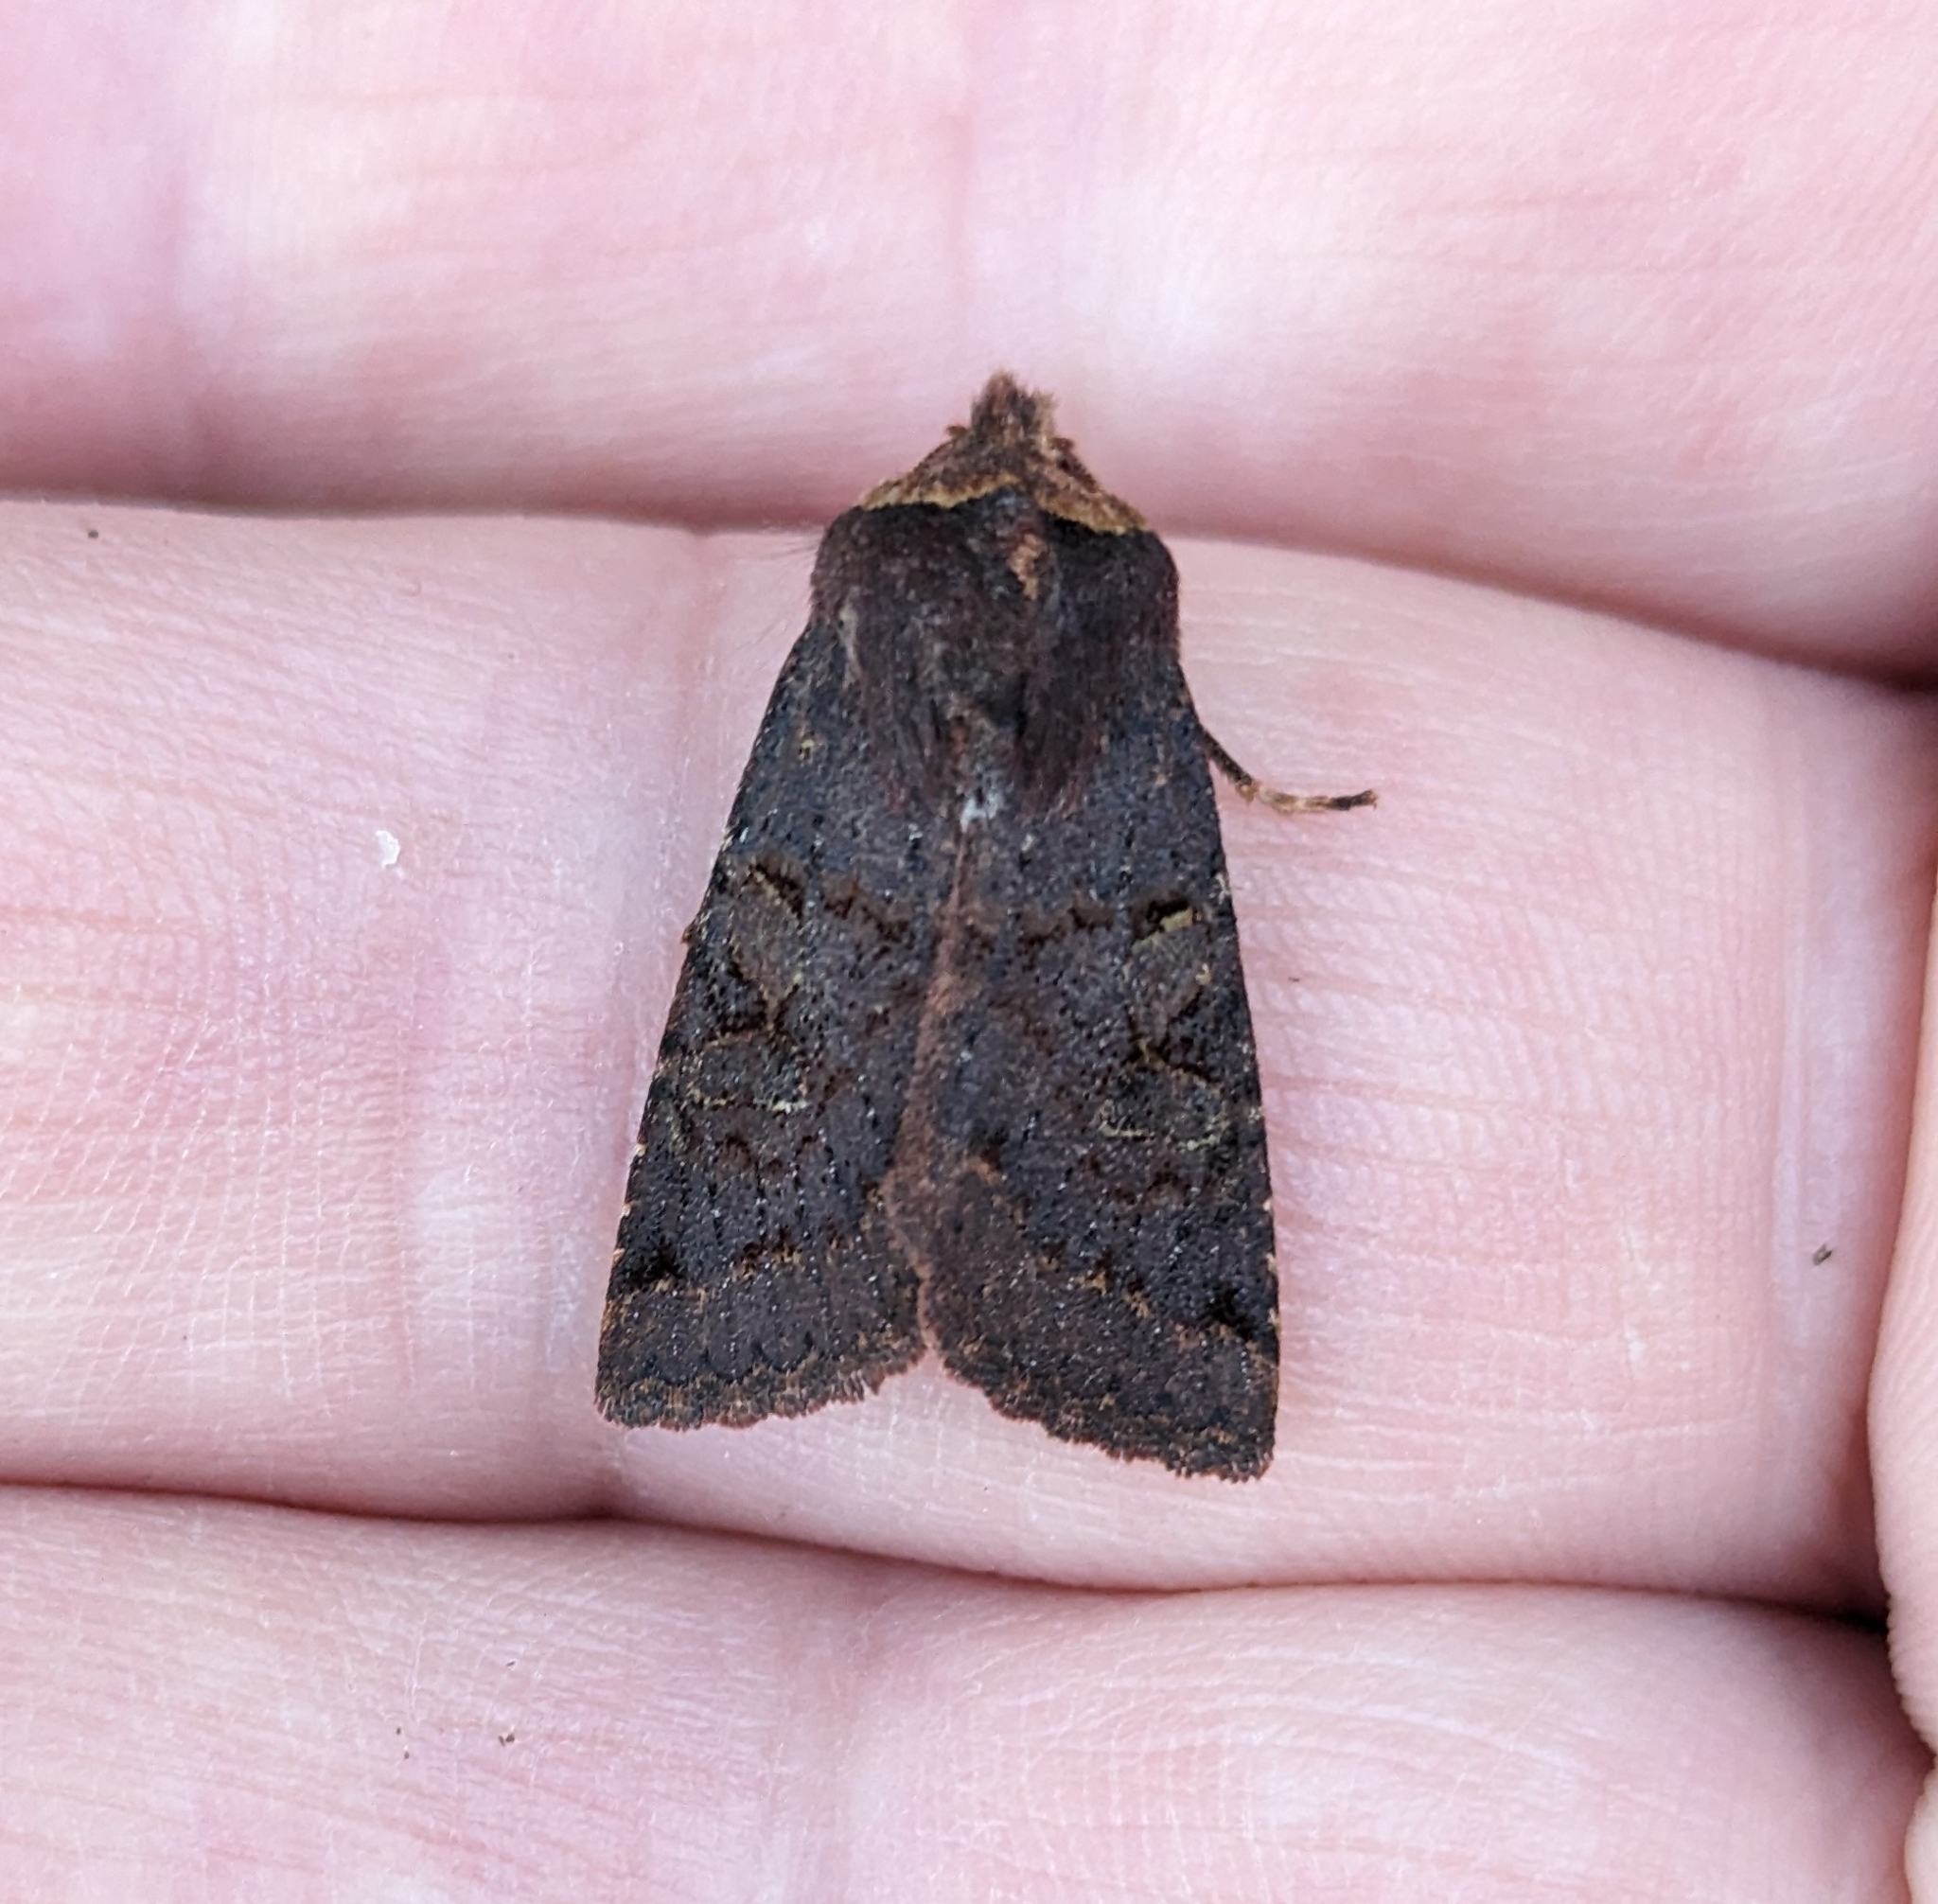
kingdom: Animalia
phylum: Arthropoda
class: Insecta
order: Lepidoptera
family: Noctuidae
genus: Orthosia
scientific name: Orthosia praeses
